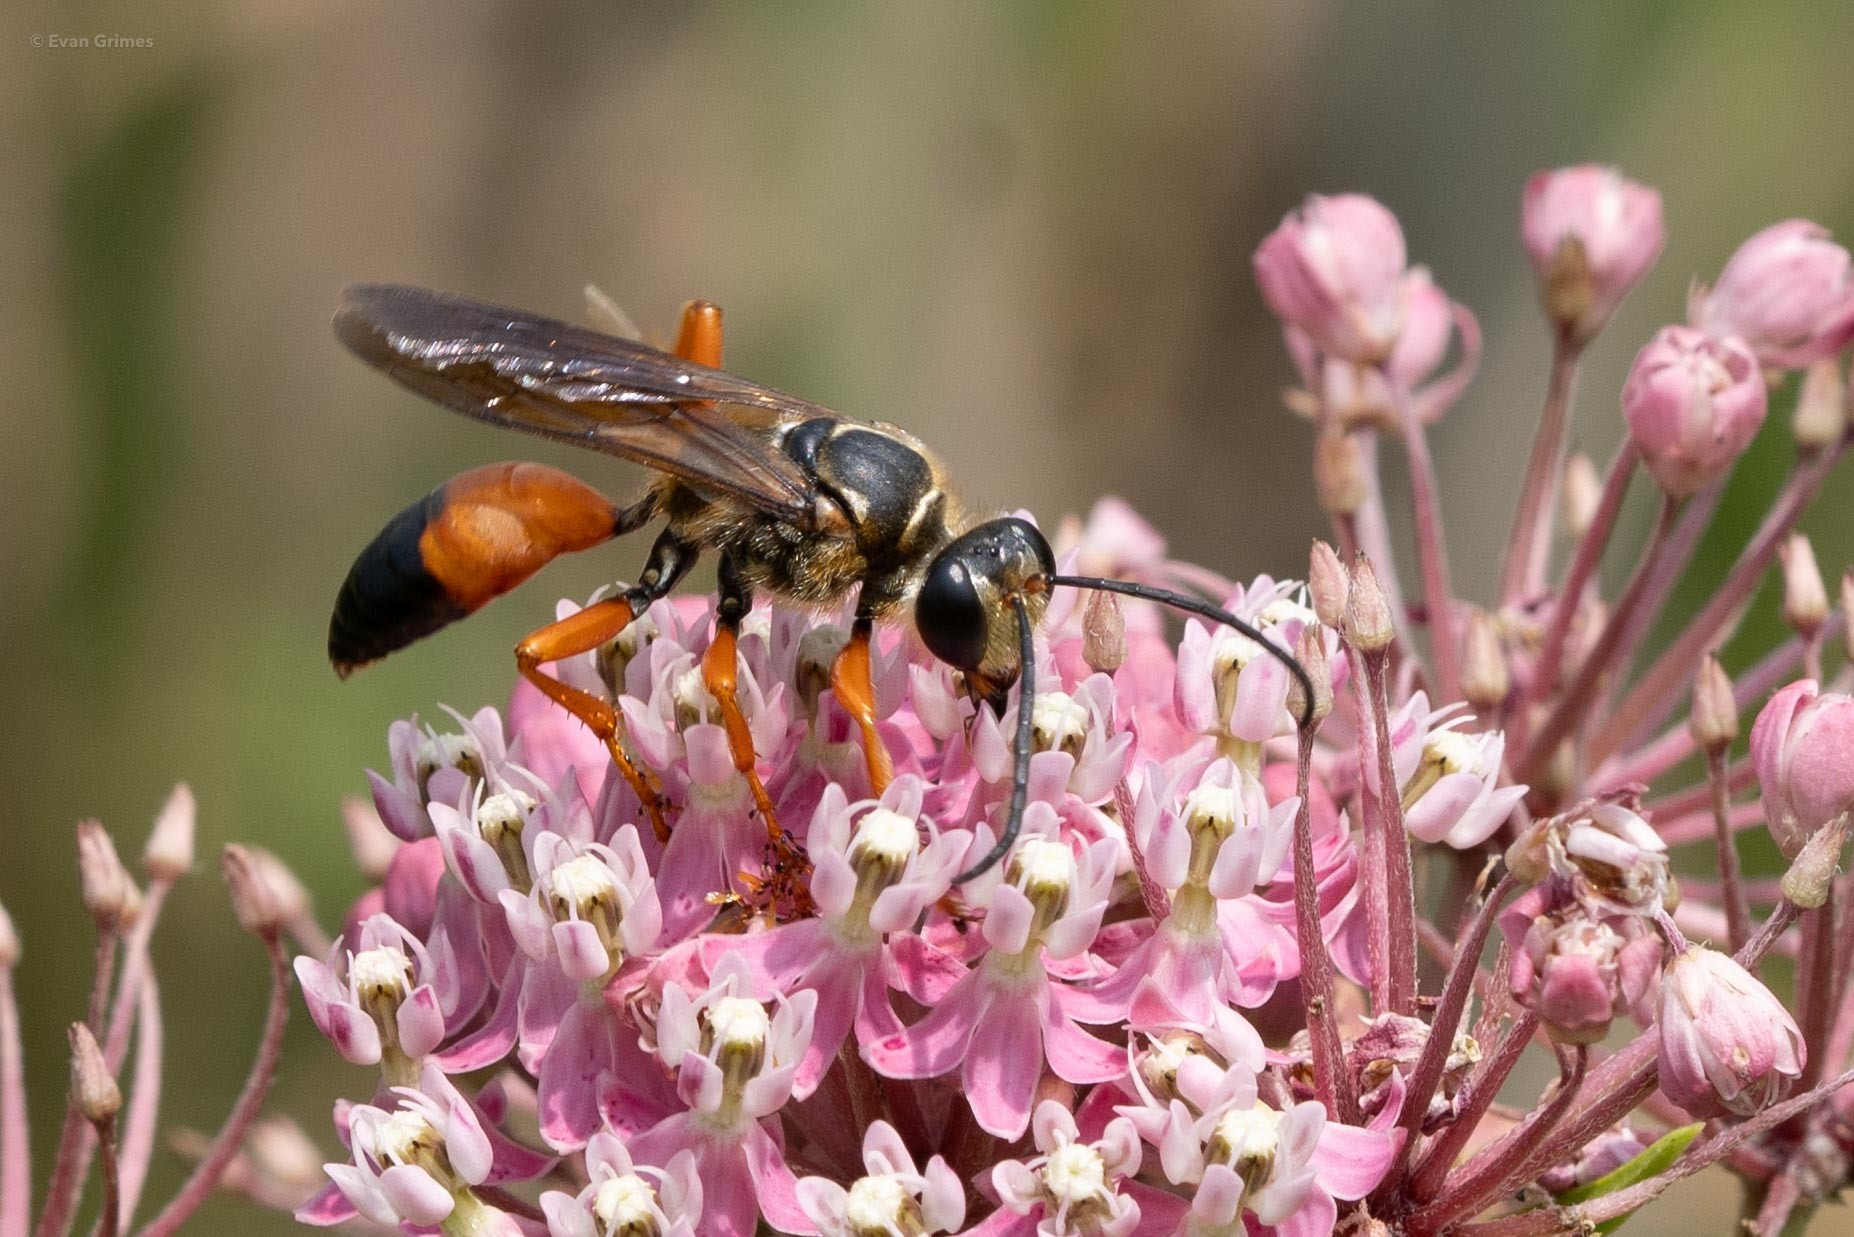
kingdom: Animalia
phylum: Arthropoda
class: Insecta
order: Hymenoptera
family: Sphecidae
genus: Sphex
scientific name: Sphex ichneumoneus
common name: Great golden digger wasp
